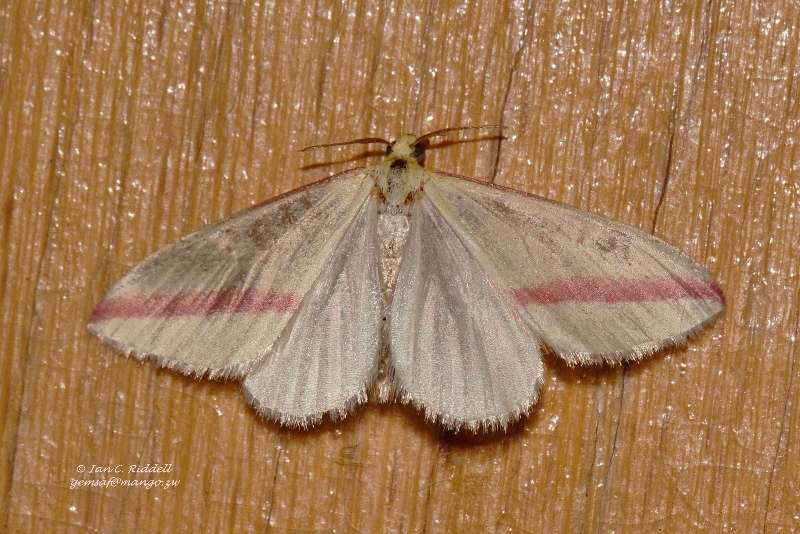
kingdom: Animalia
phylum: Arthropoda
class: Insecta
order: Lepidoptera
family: Geometridae
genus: Rhodometra
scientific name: Rhodometra sacraria
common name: Vestal
